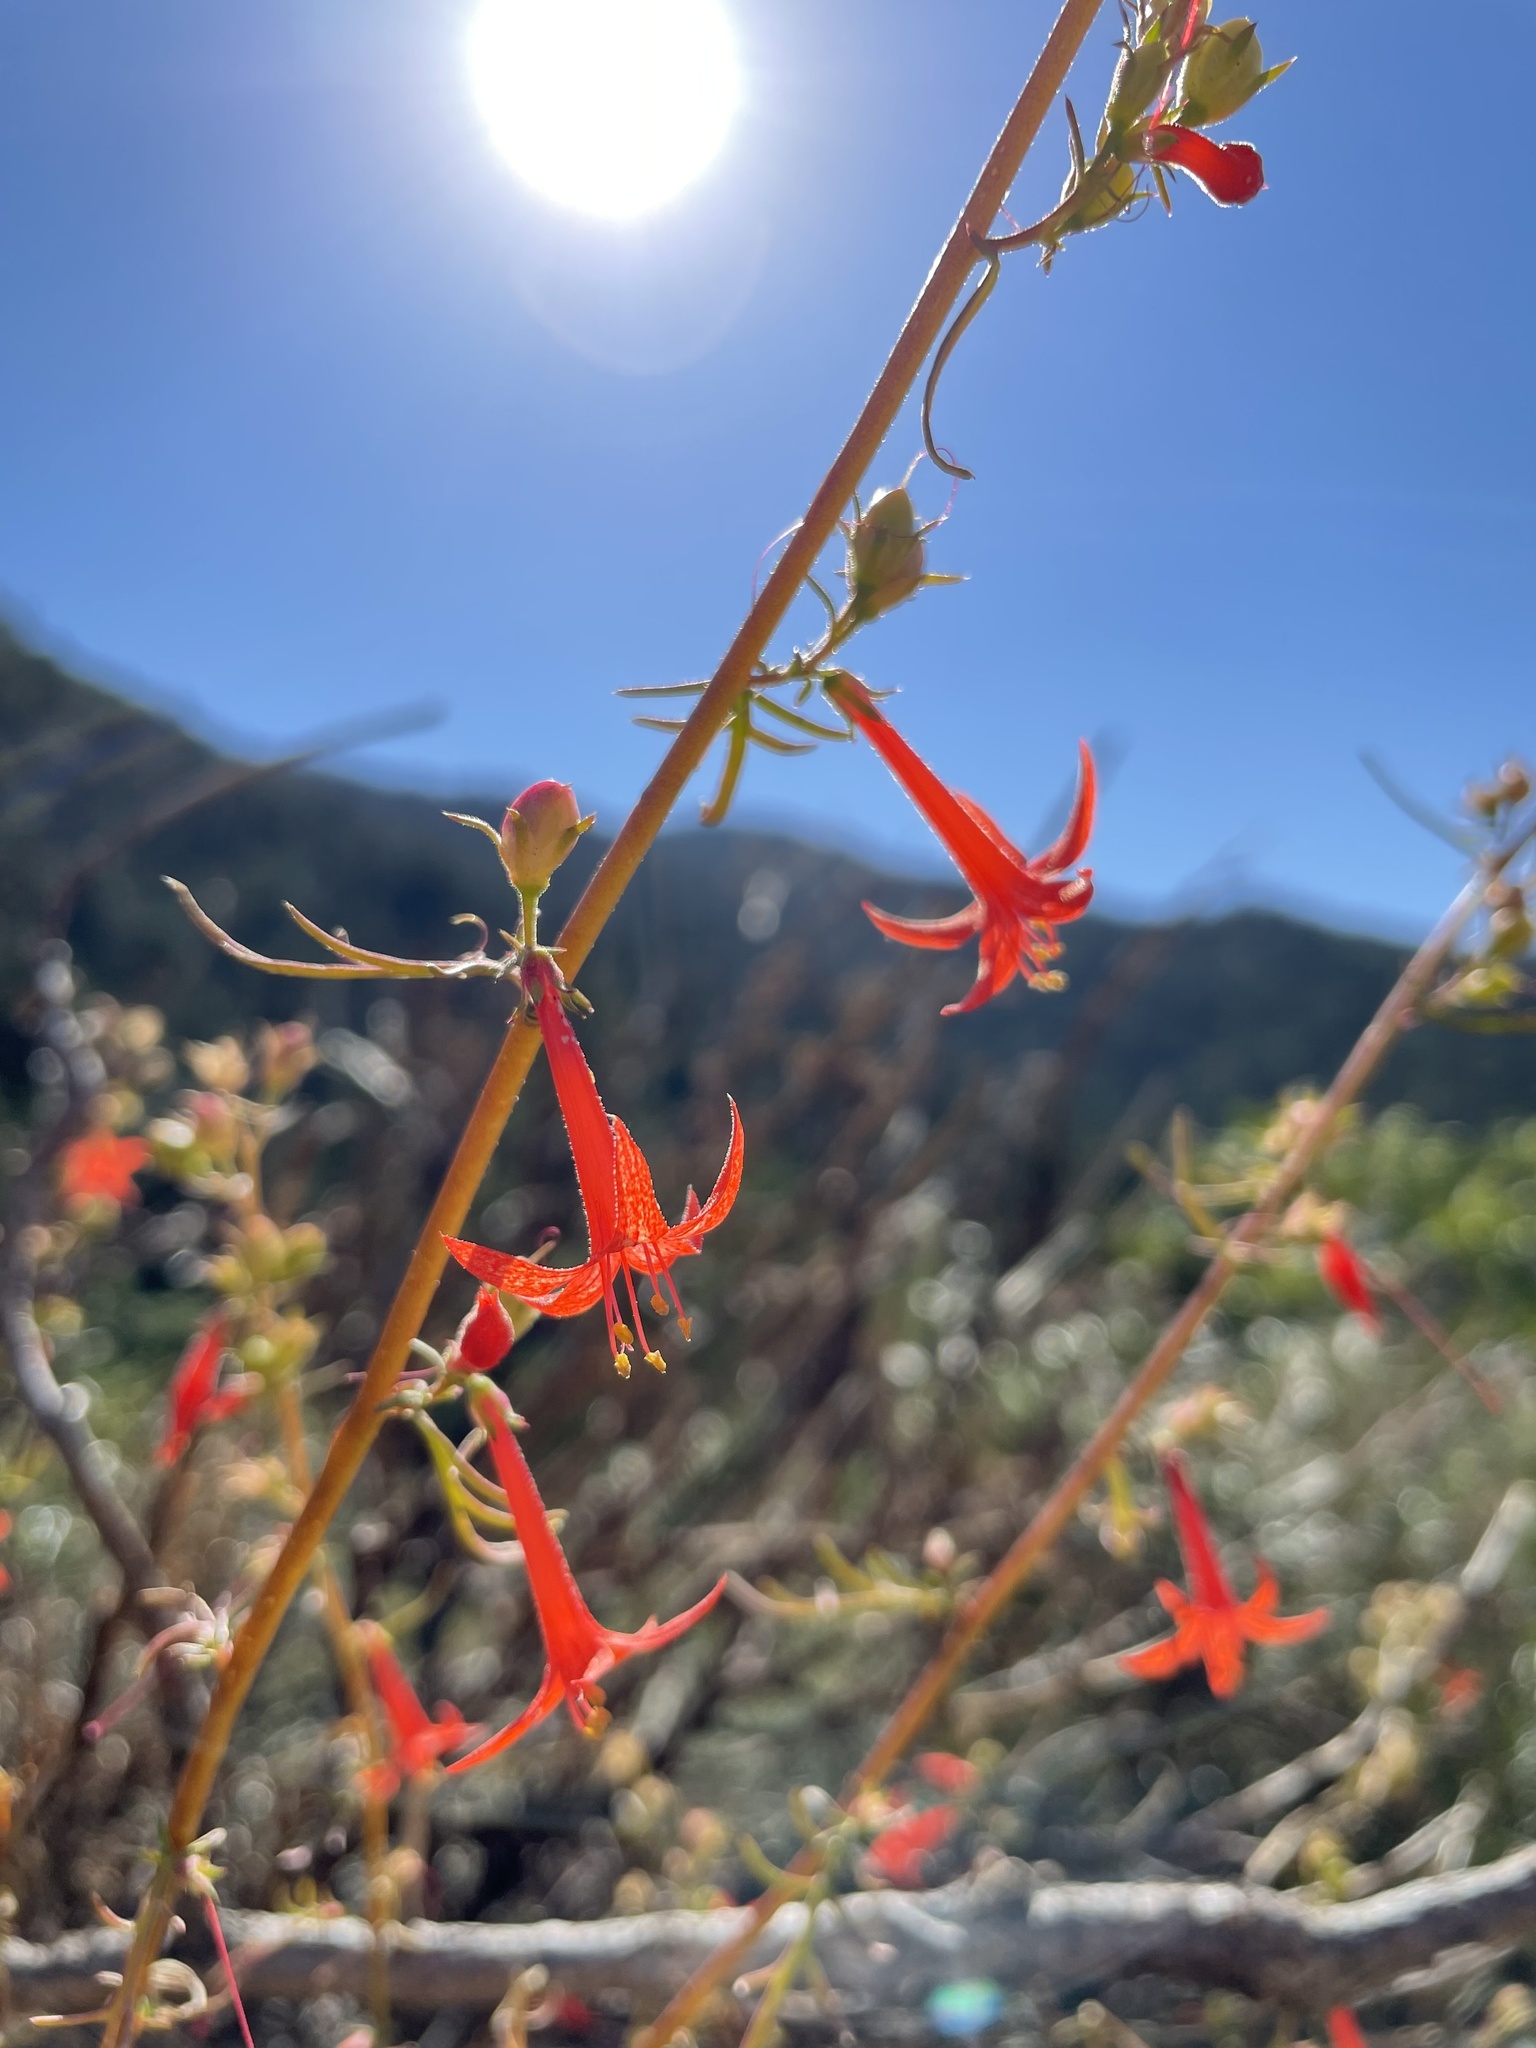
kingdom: Plantae
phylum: Tracheophyta
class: Magnoliopsida
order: Ericales
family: Polemoniaceae
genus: Ipomopsis
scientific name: Ipomopsis aggregata
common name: Scarlet gilia
